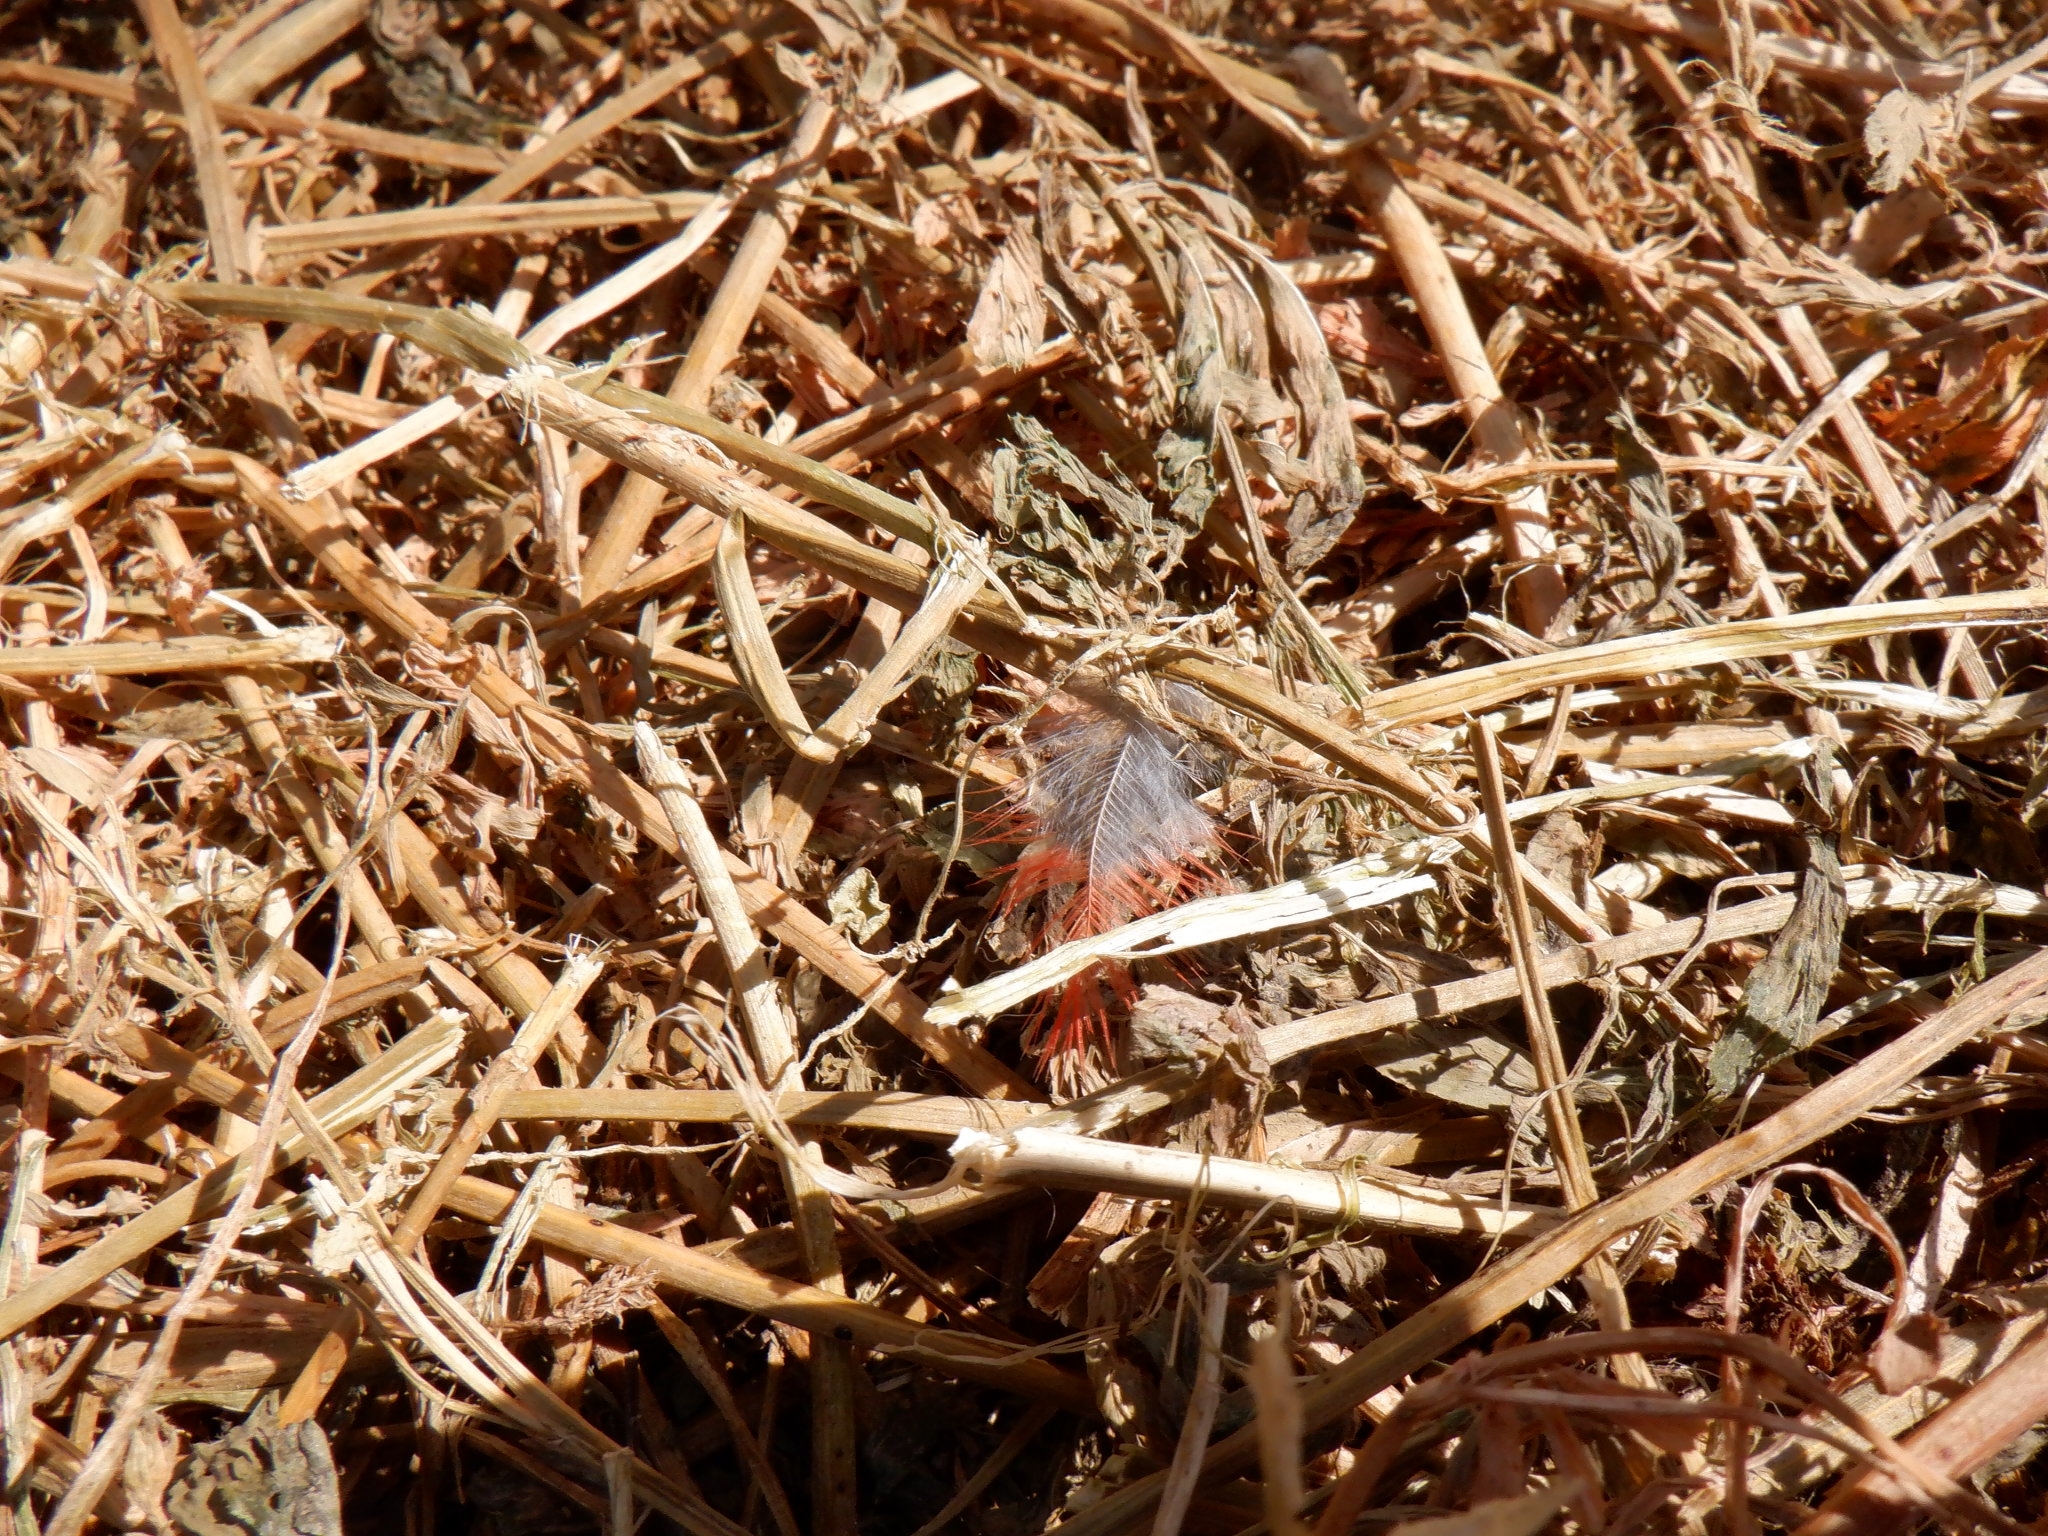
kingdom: Animalia
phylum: Chordata
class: Aves
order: Passeriformes
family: Cardinalidae
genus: Cardinalis
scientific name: Cardinalis cardinalis
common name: Northern cardinal
